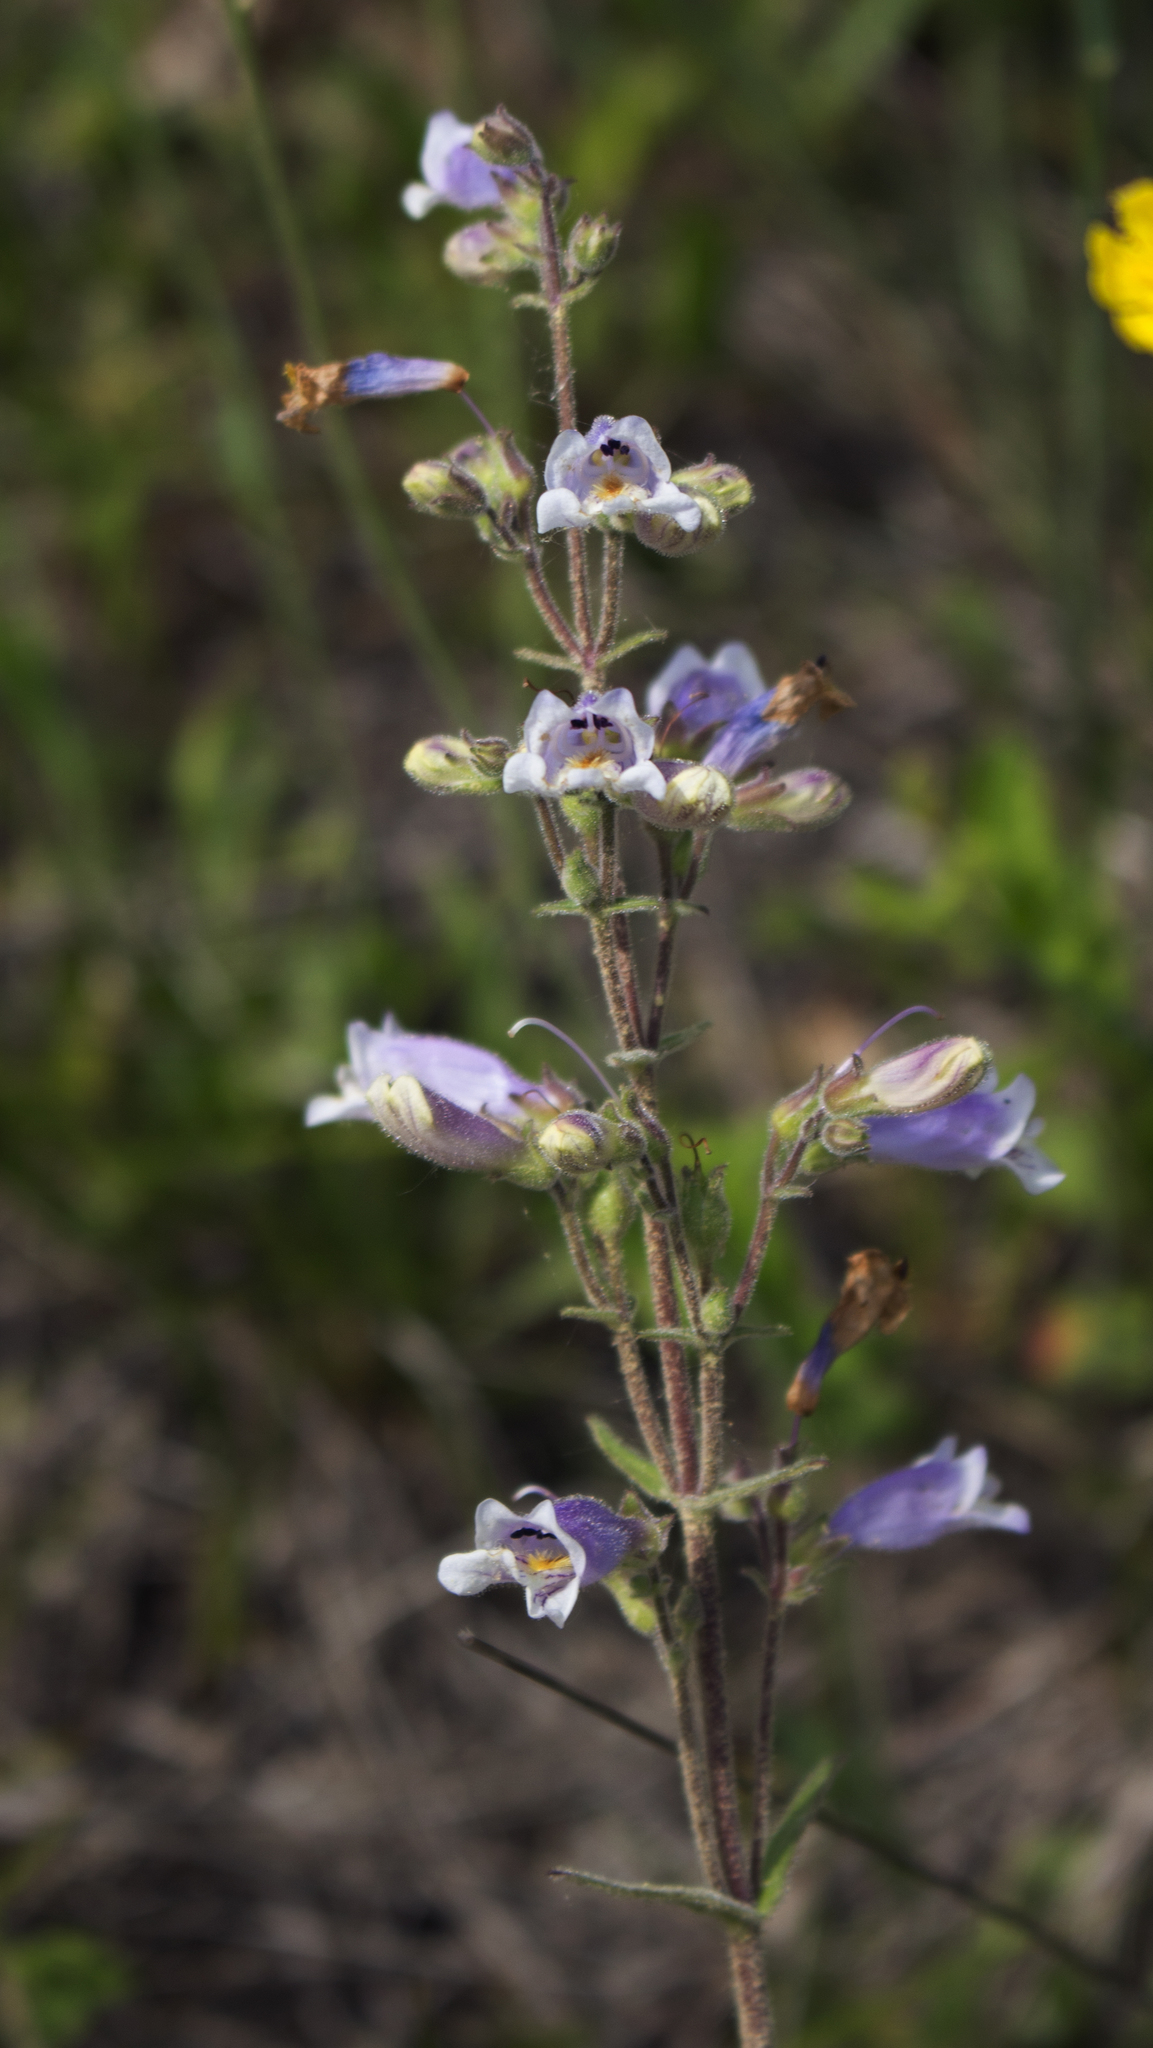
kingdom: Plantae
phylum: Tracheophyta
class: Magnoliopsida
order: Lamiales
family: Plantaginaceae
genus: Penstemon
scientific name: Penstemon gracilis
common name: Slender beardtongue
